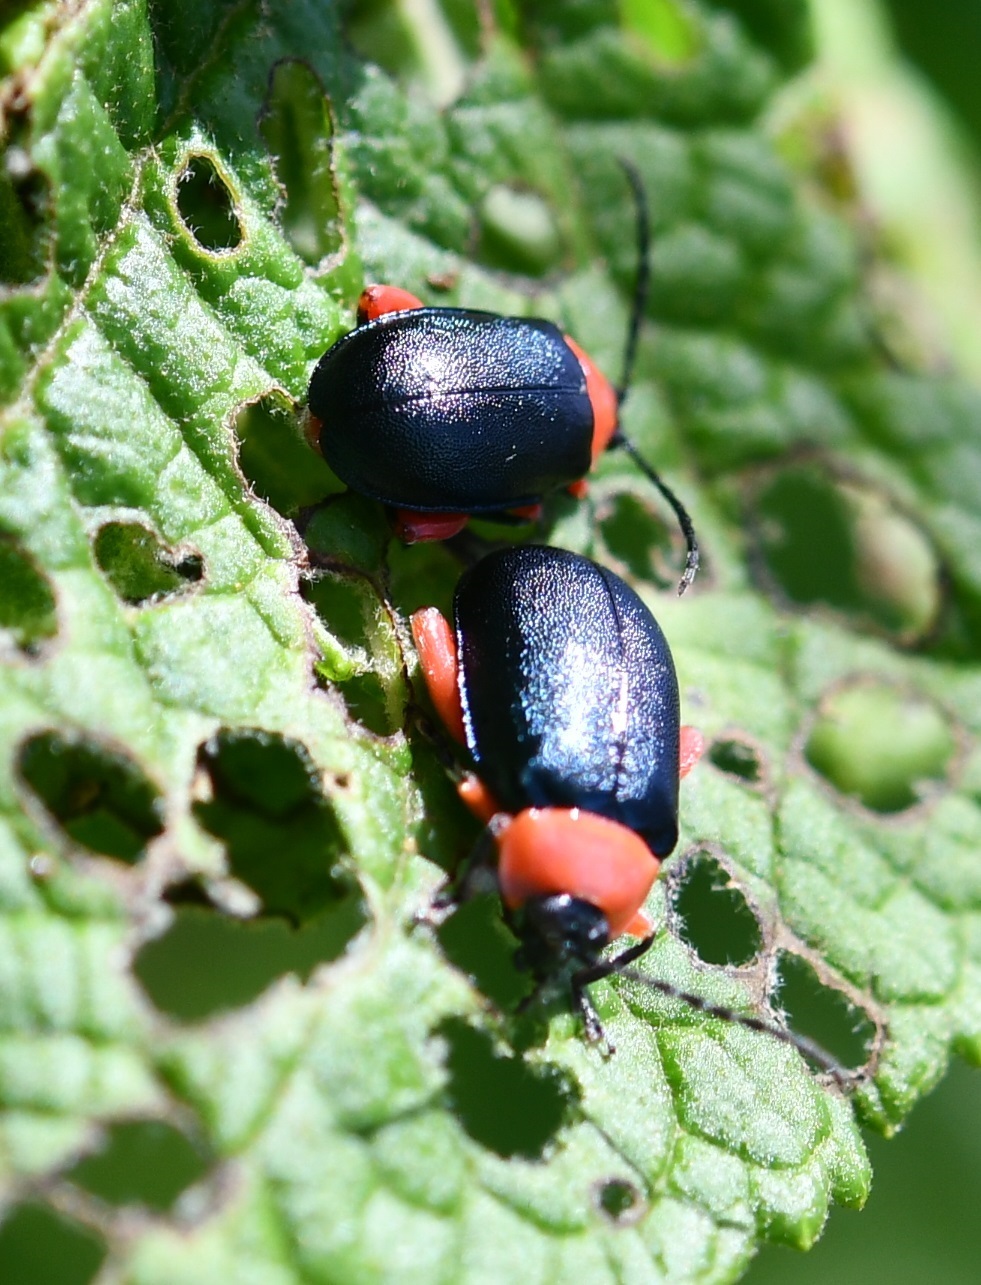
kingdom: Animalia
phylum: Arthropoda
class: Insecta
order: Coleoptera
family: Chrysomelidae
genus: Asphaera
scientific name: Asphaera abdominalis
